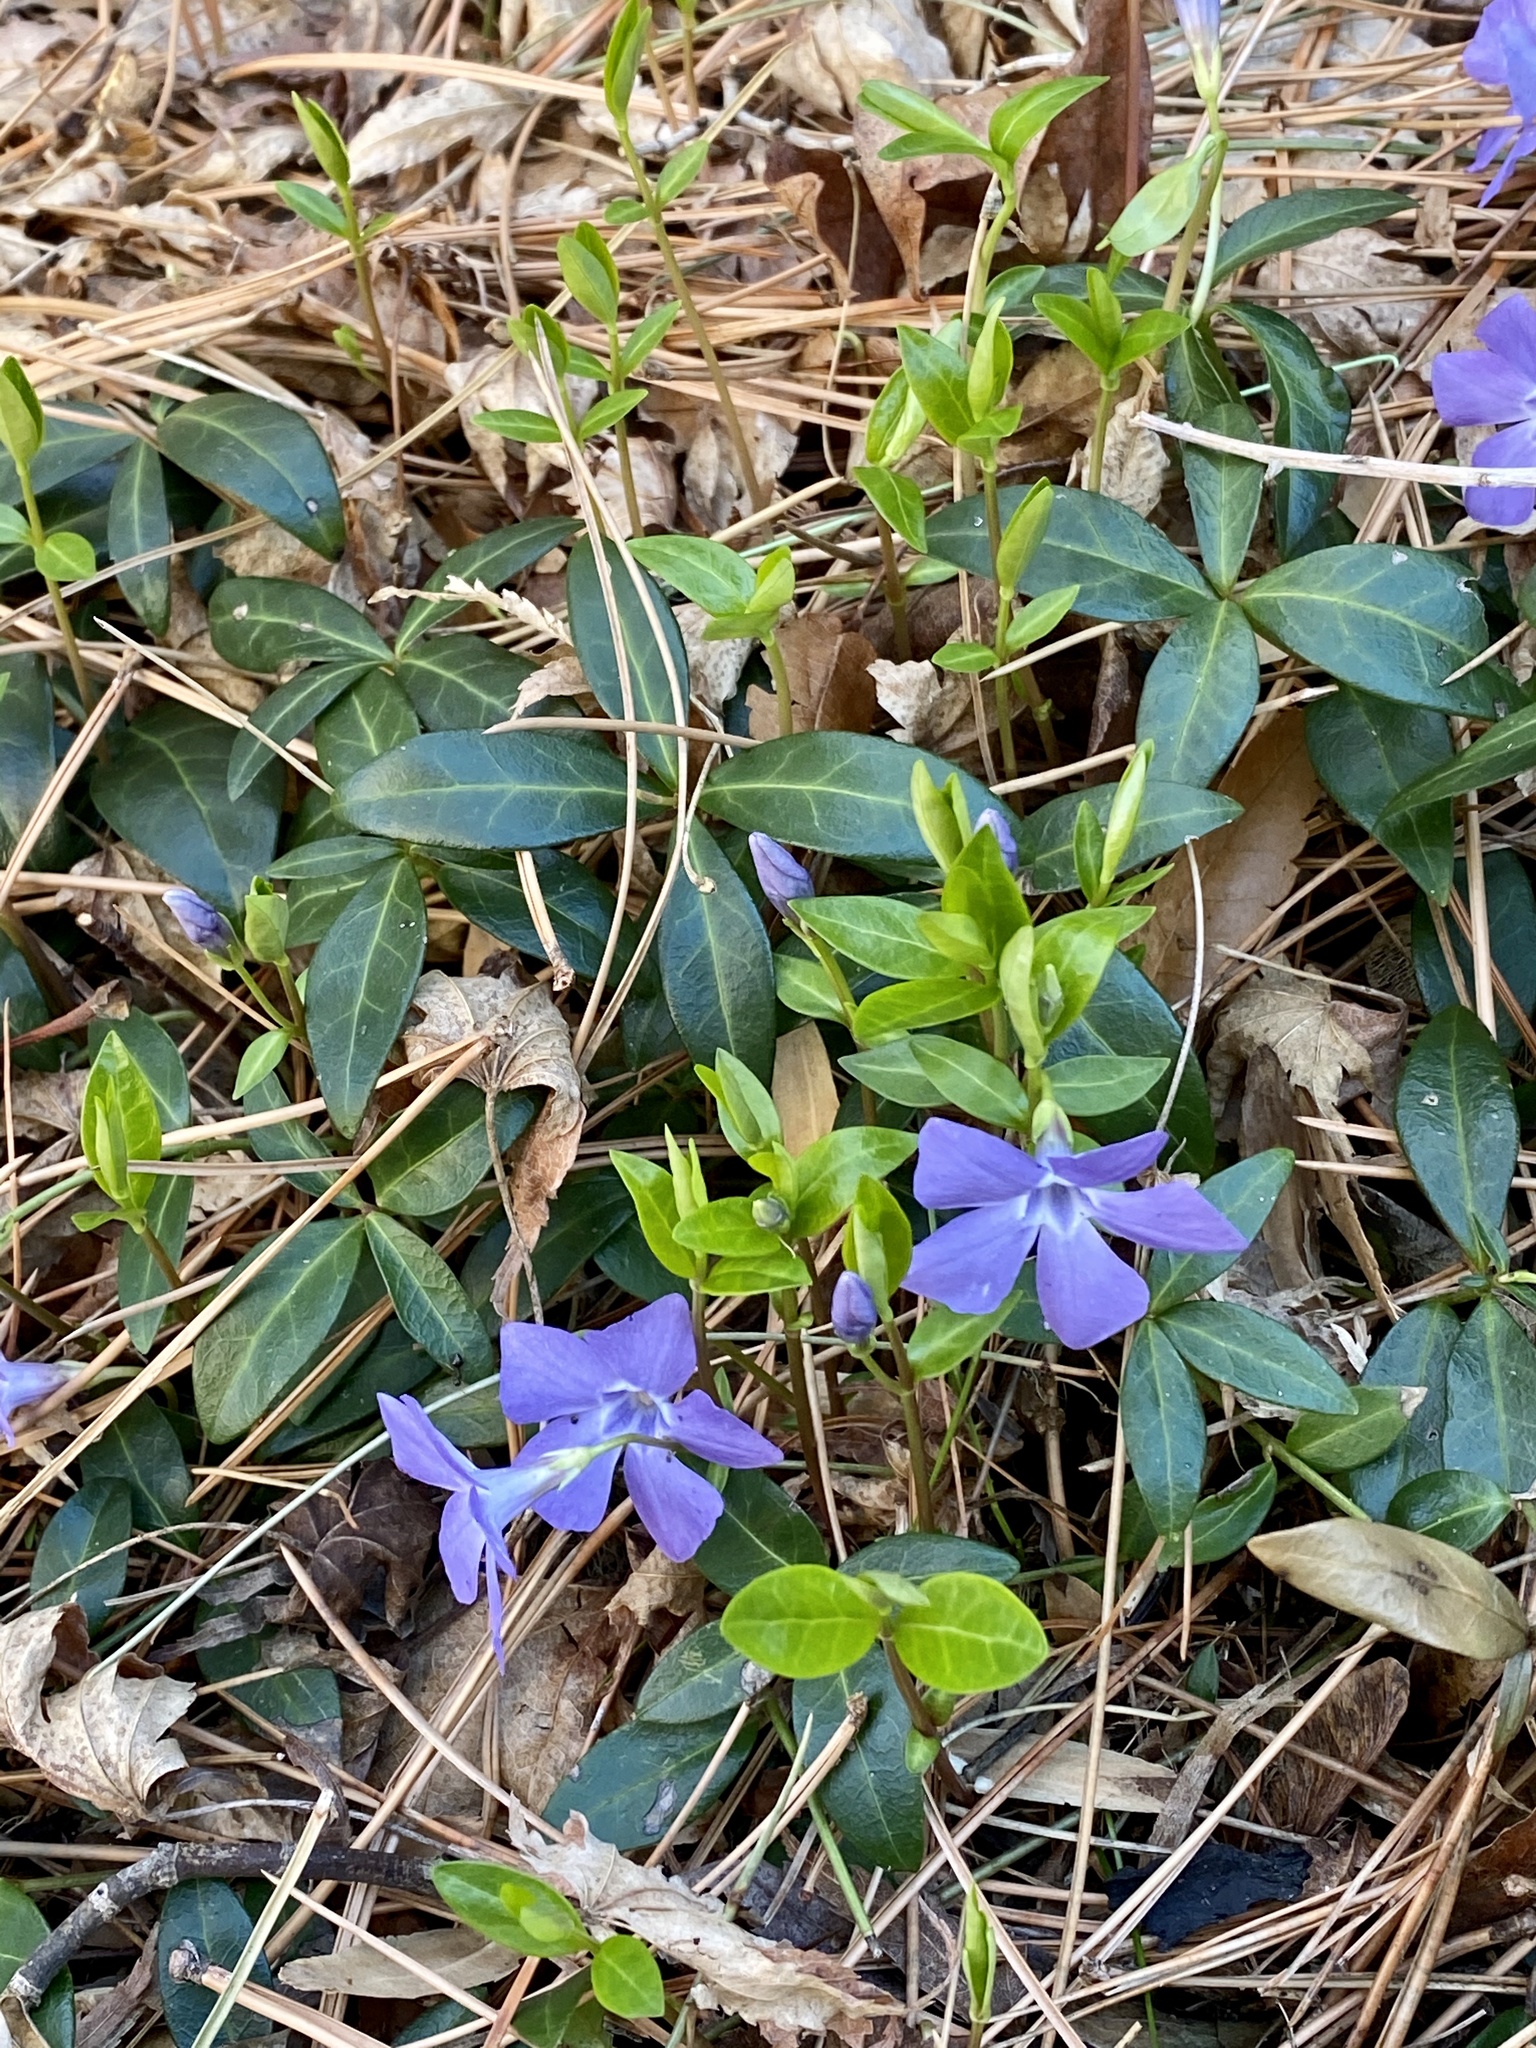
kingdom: Plantae
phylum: Tracheophyta
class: Magnoliopsida
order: Gentianales
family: Apocynaceae
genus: Vinca
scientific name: Vinca minor
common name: Lesser periwinkle
